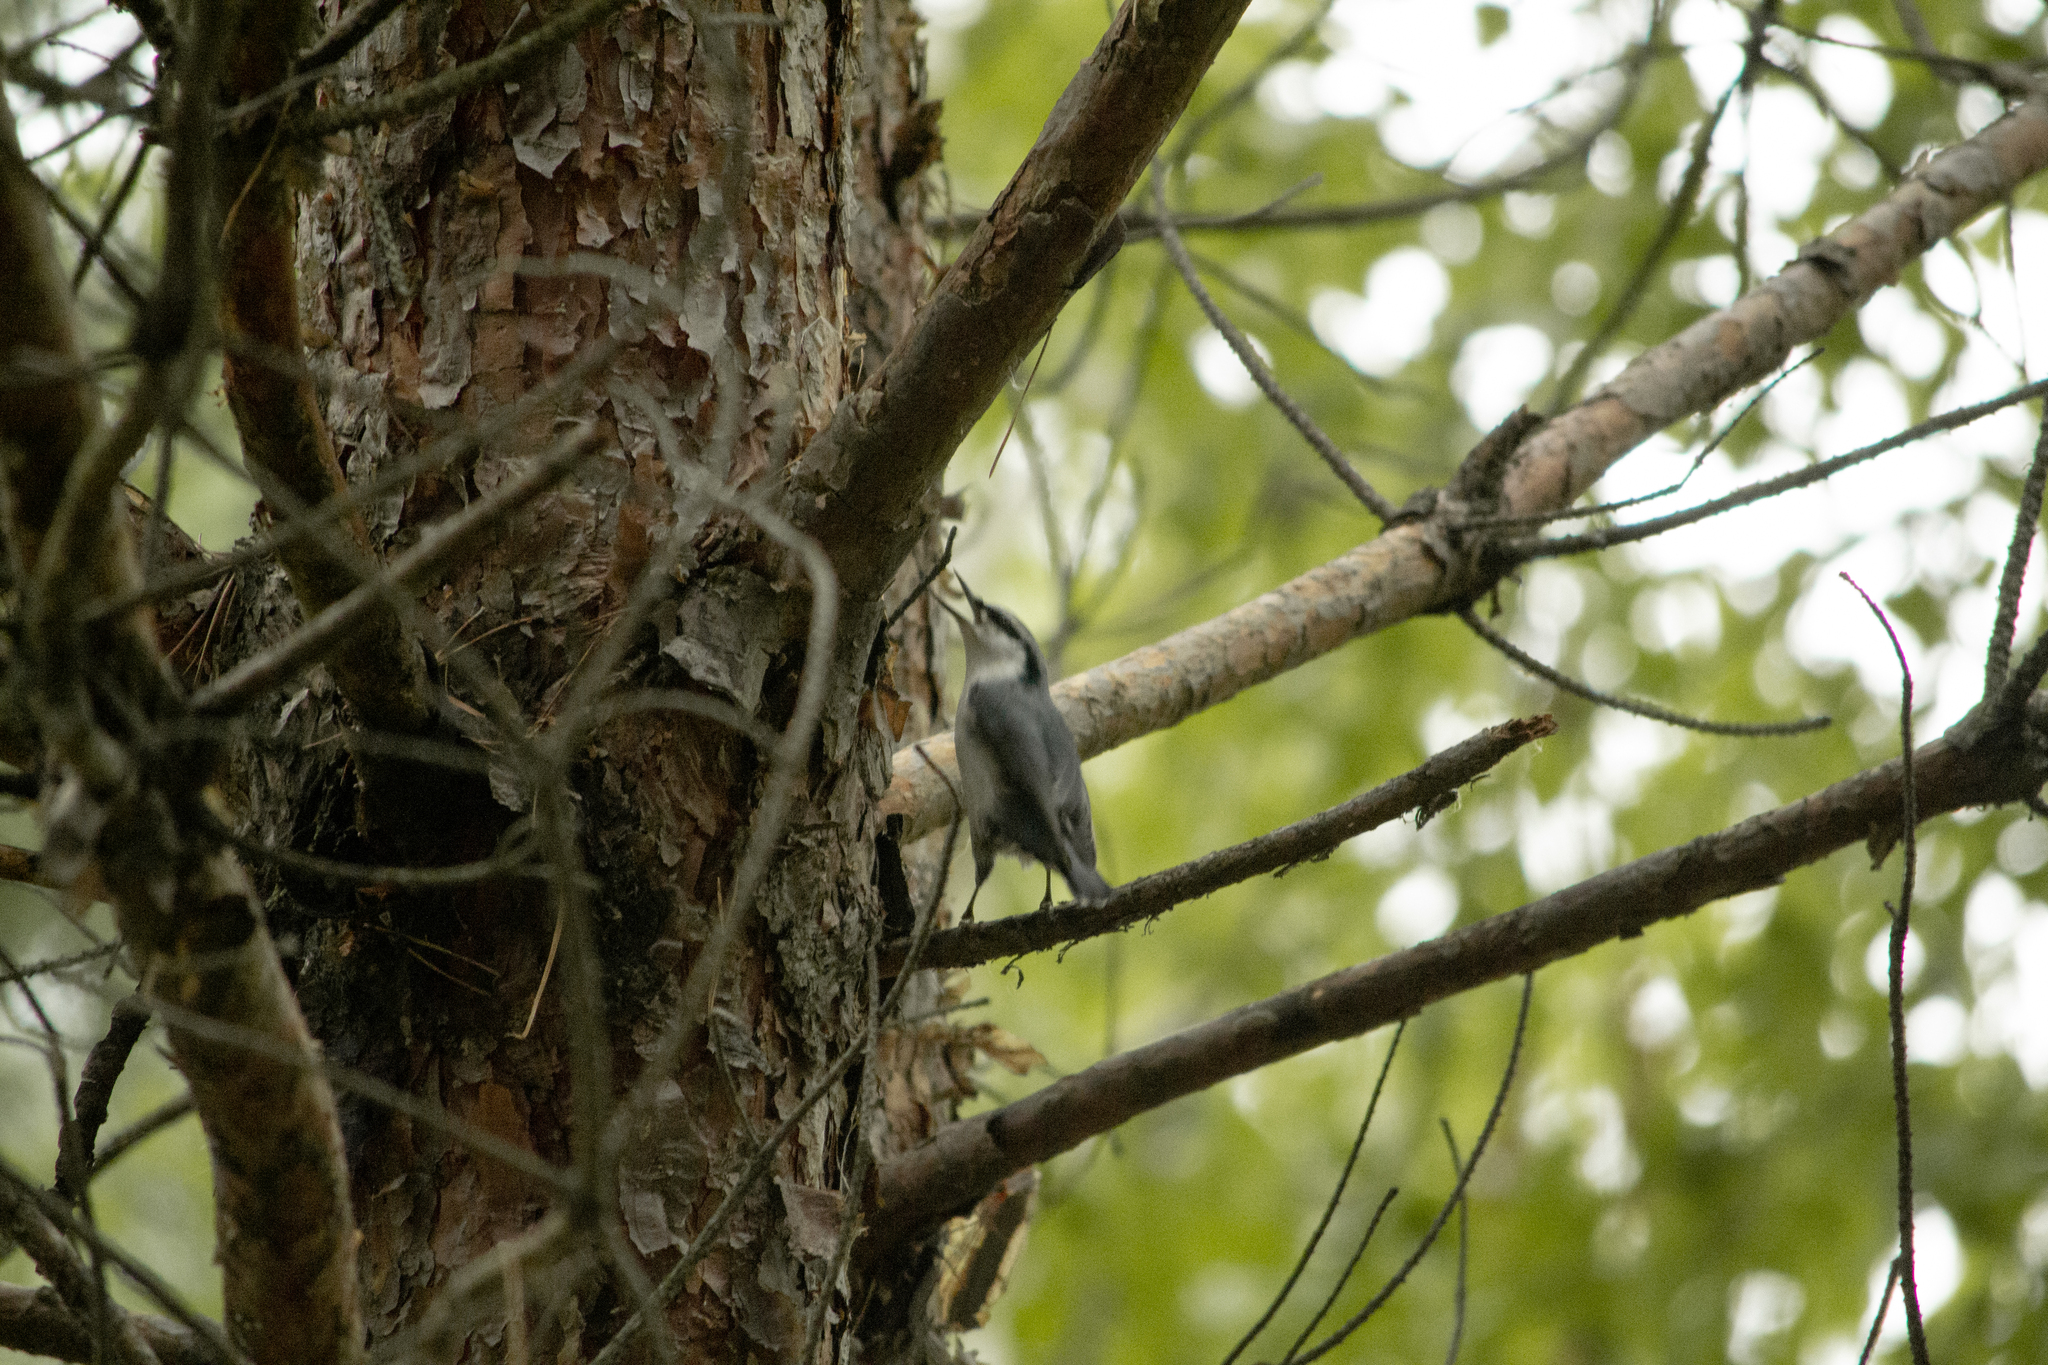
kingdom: Animalia
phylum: Chordata
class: Aves
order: Passeriformes
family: Sittidae
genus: Sitta
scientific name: Sitta europaea
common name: Eurasian nuthatch
